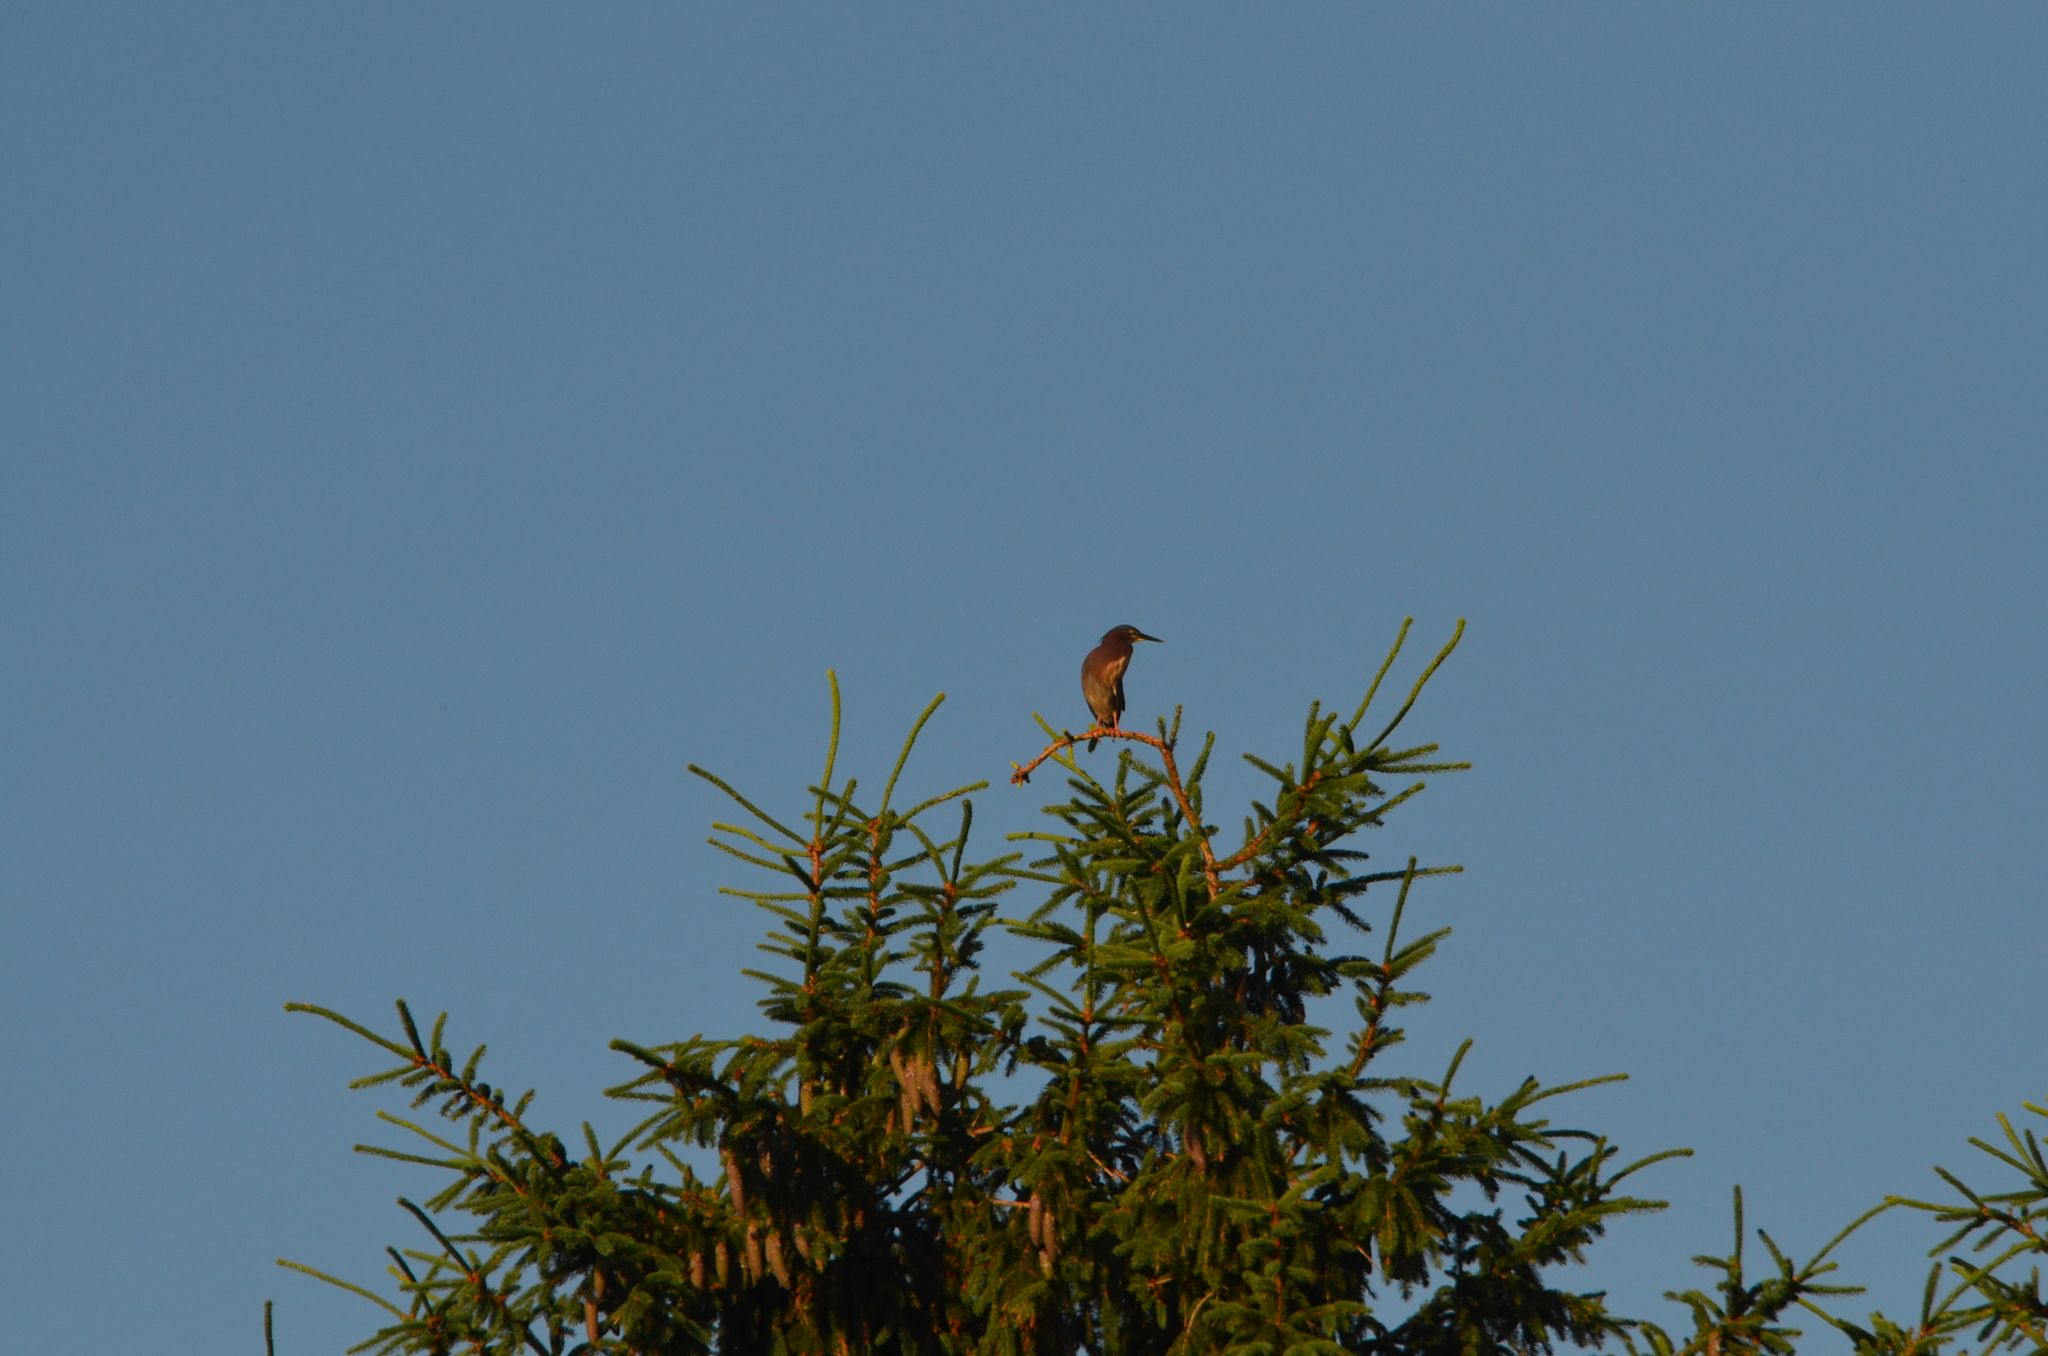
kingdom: Animalia
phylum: Chordata
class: Aves
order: Pelecaniformes
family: Ardeidae
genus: Butorides
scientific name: Butorides virescens
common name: Green heron
